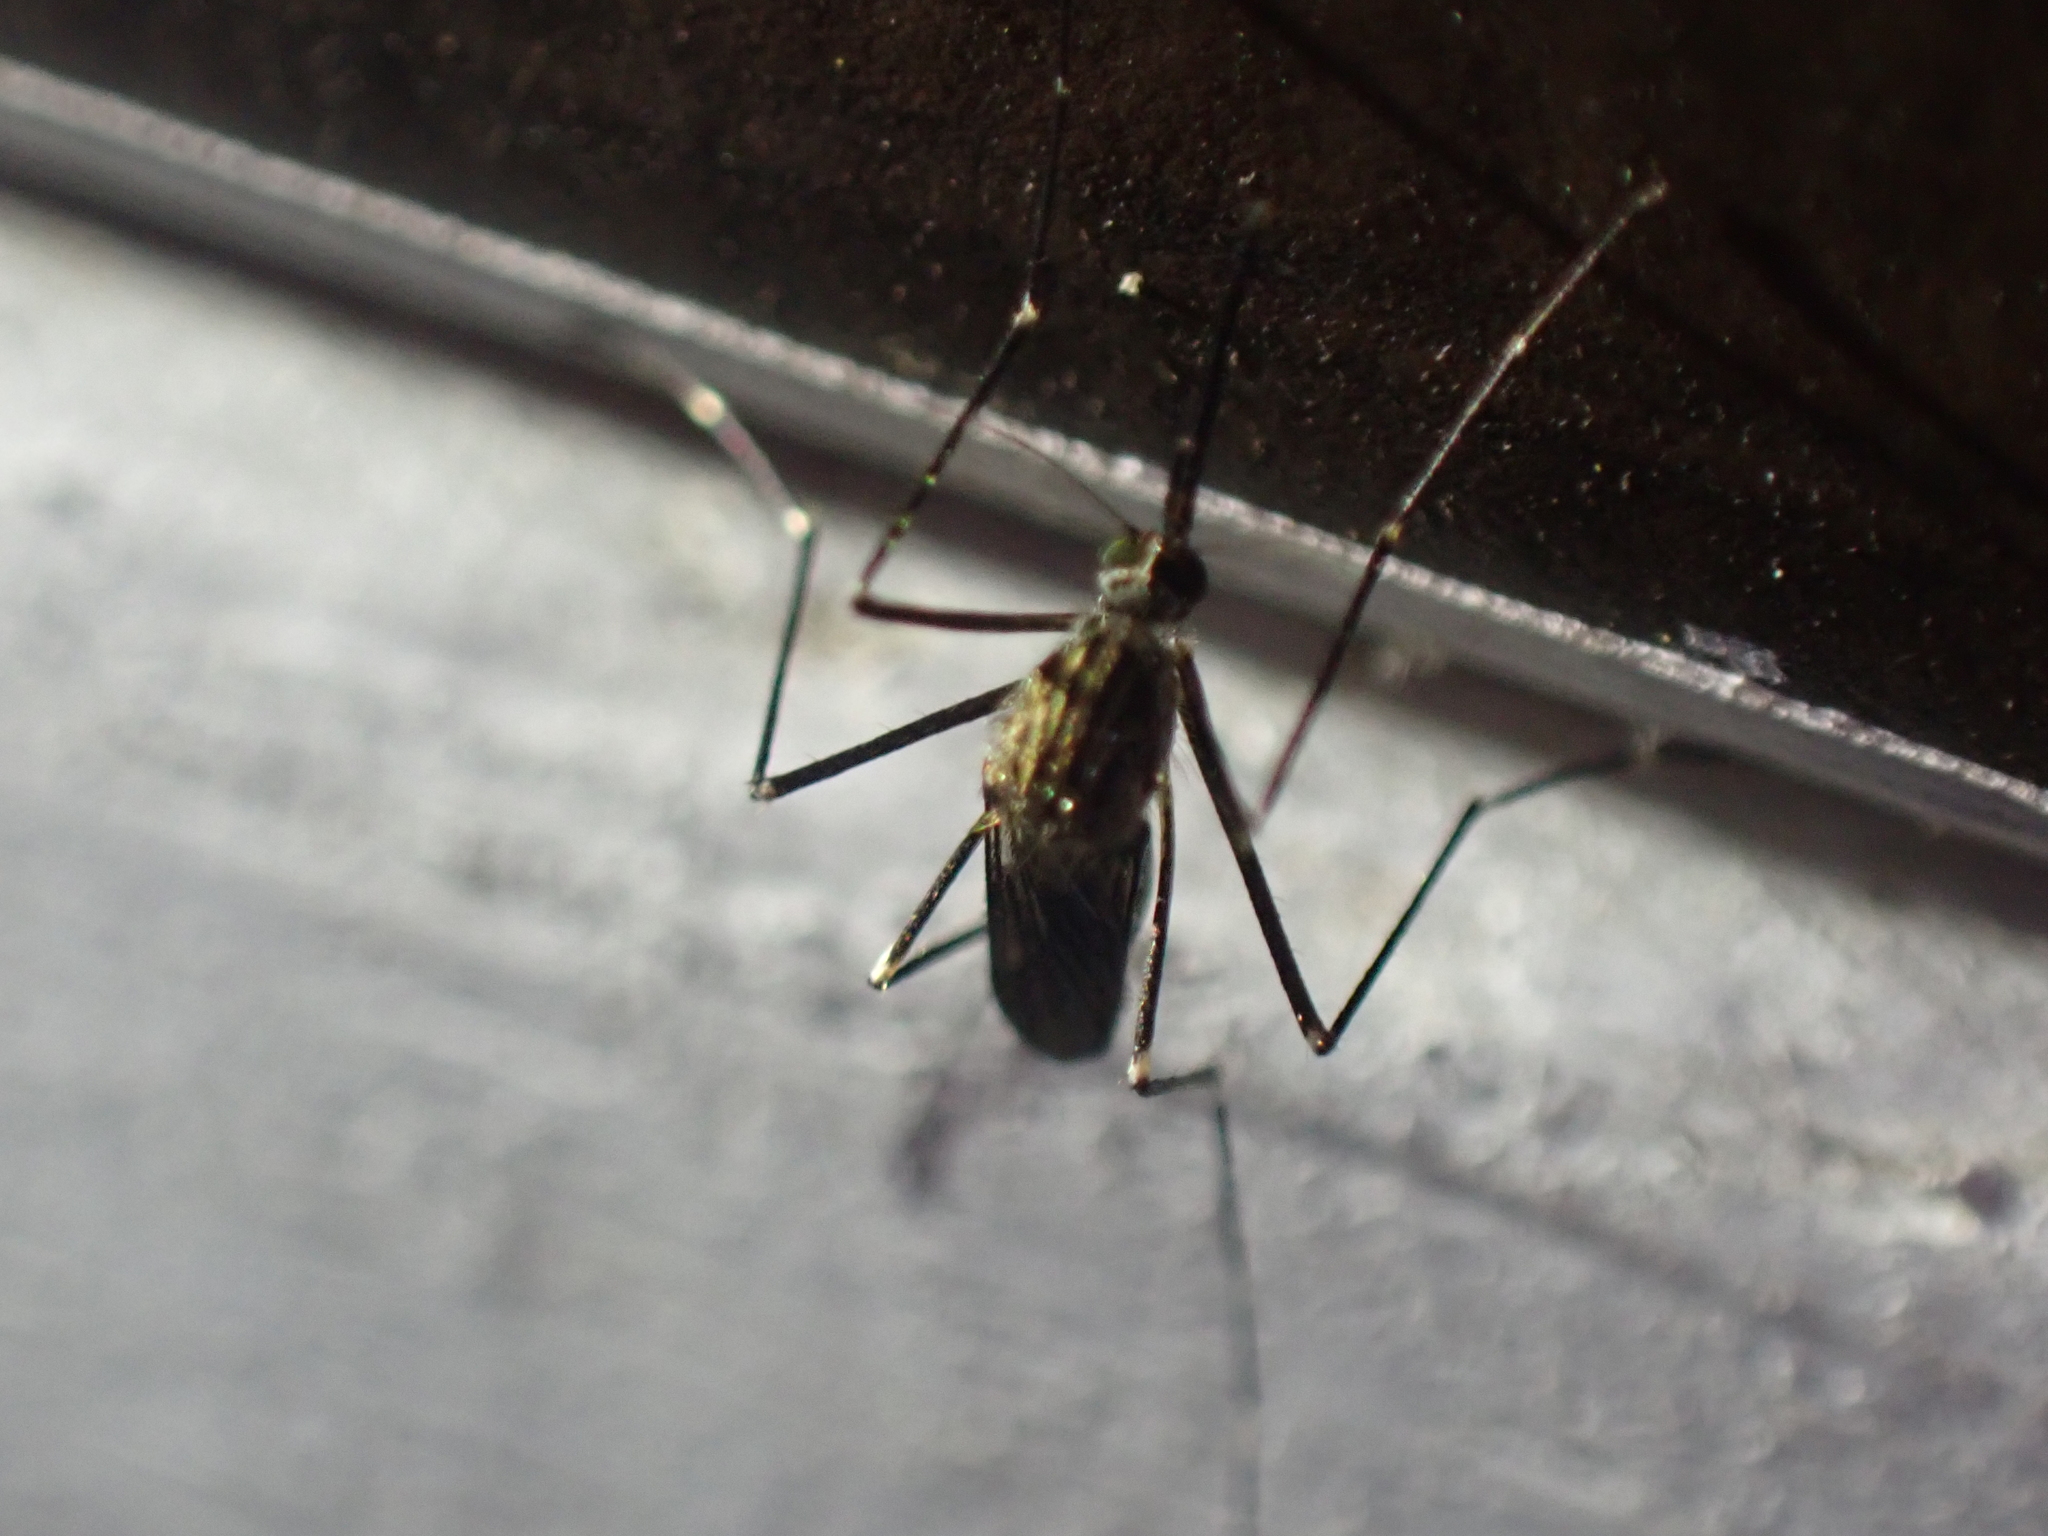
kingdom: Animalia
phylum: Arthropoda
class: Insecta
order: Diptera
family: Culicidae
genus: Aedes
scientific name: Aedes japonicus
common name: Asian bush mosquito
